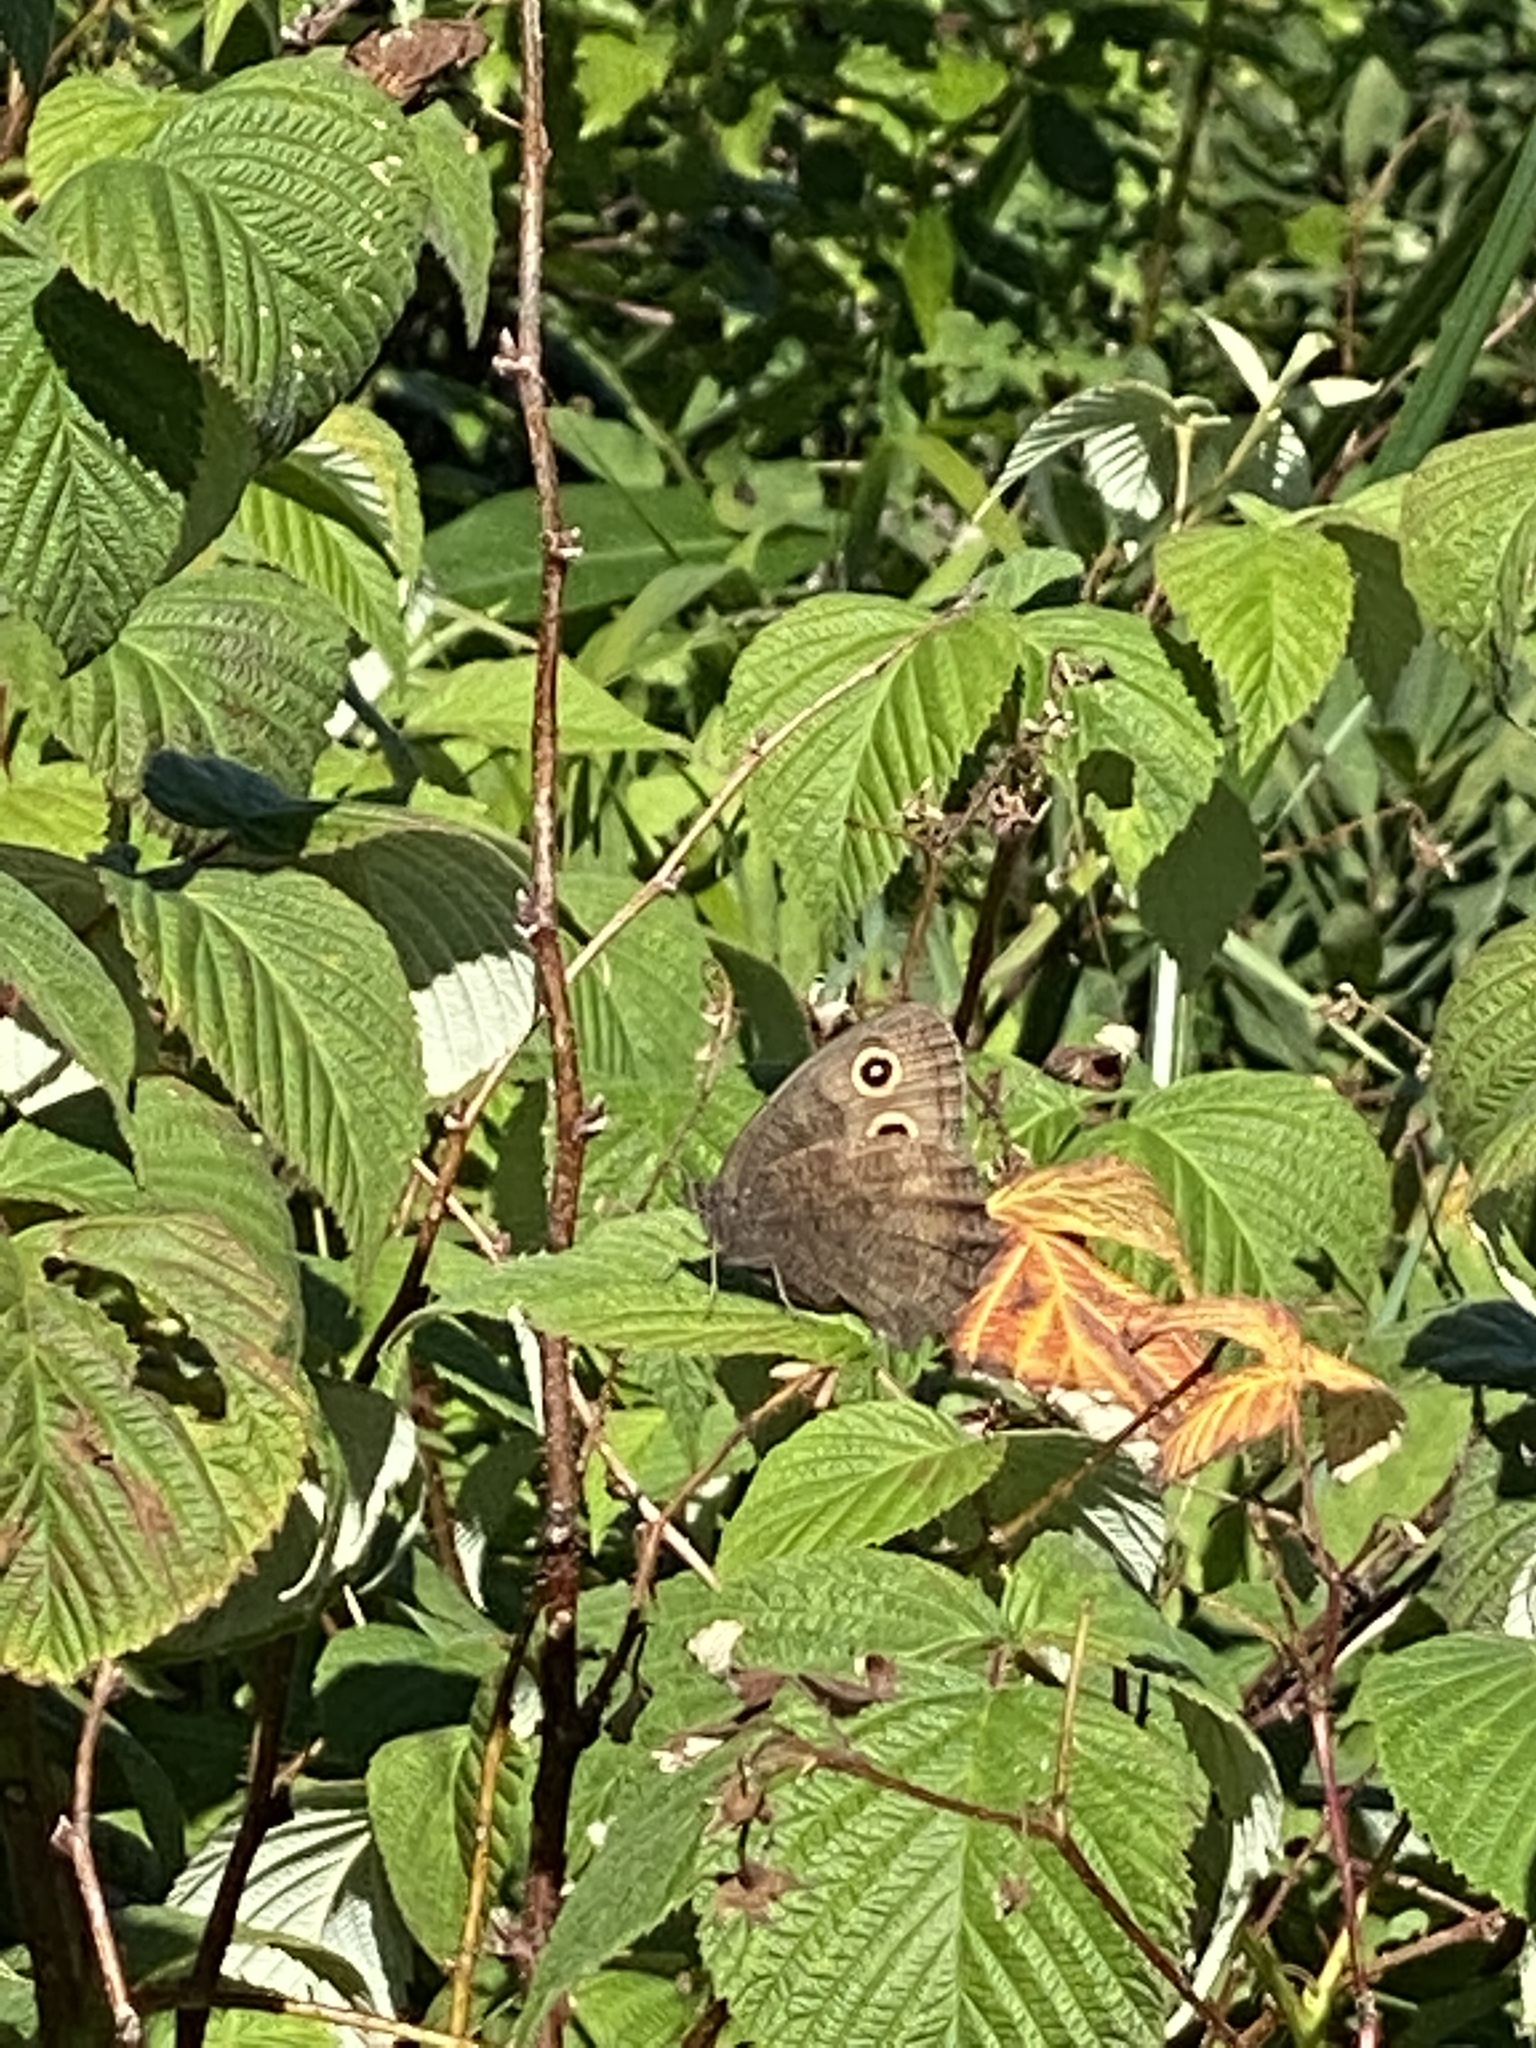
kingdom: Animalia
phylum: Arthropoda
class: Insecta
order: Lepidoptera
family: Nymphalidae
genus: Cercyonis
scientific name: Cercyonis pegala
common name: Common wood-nymph
